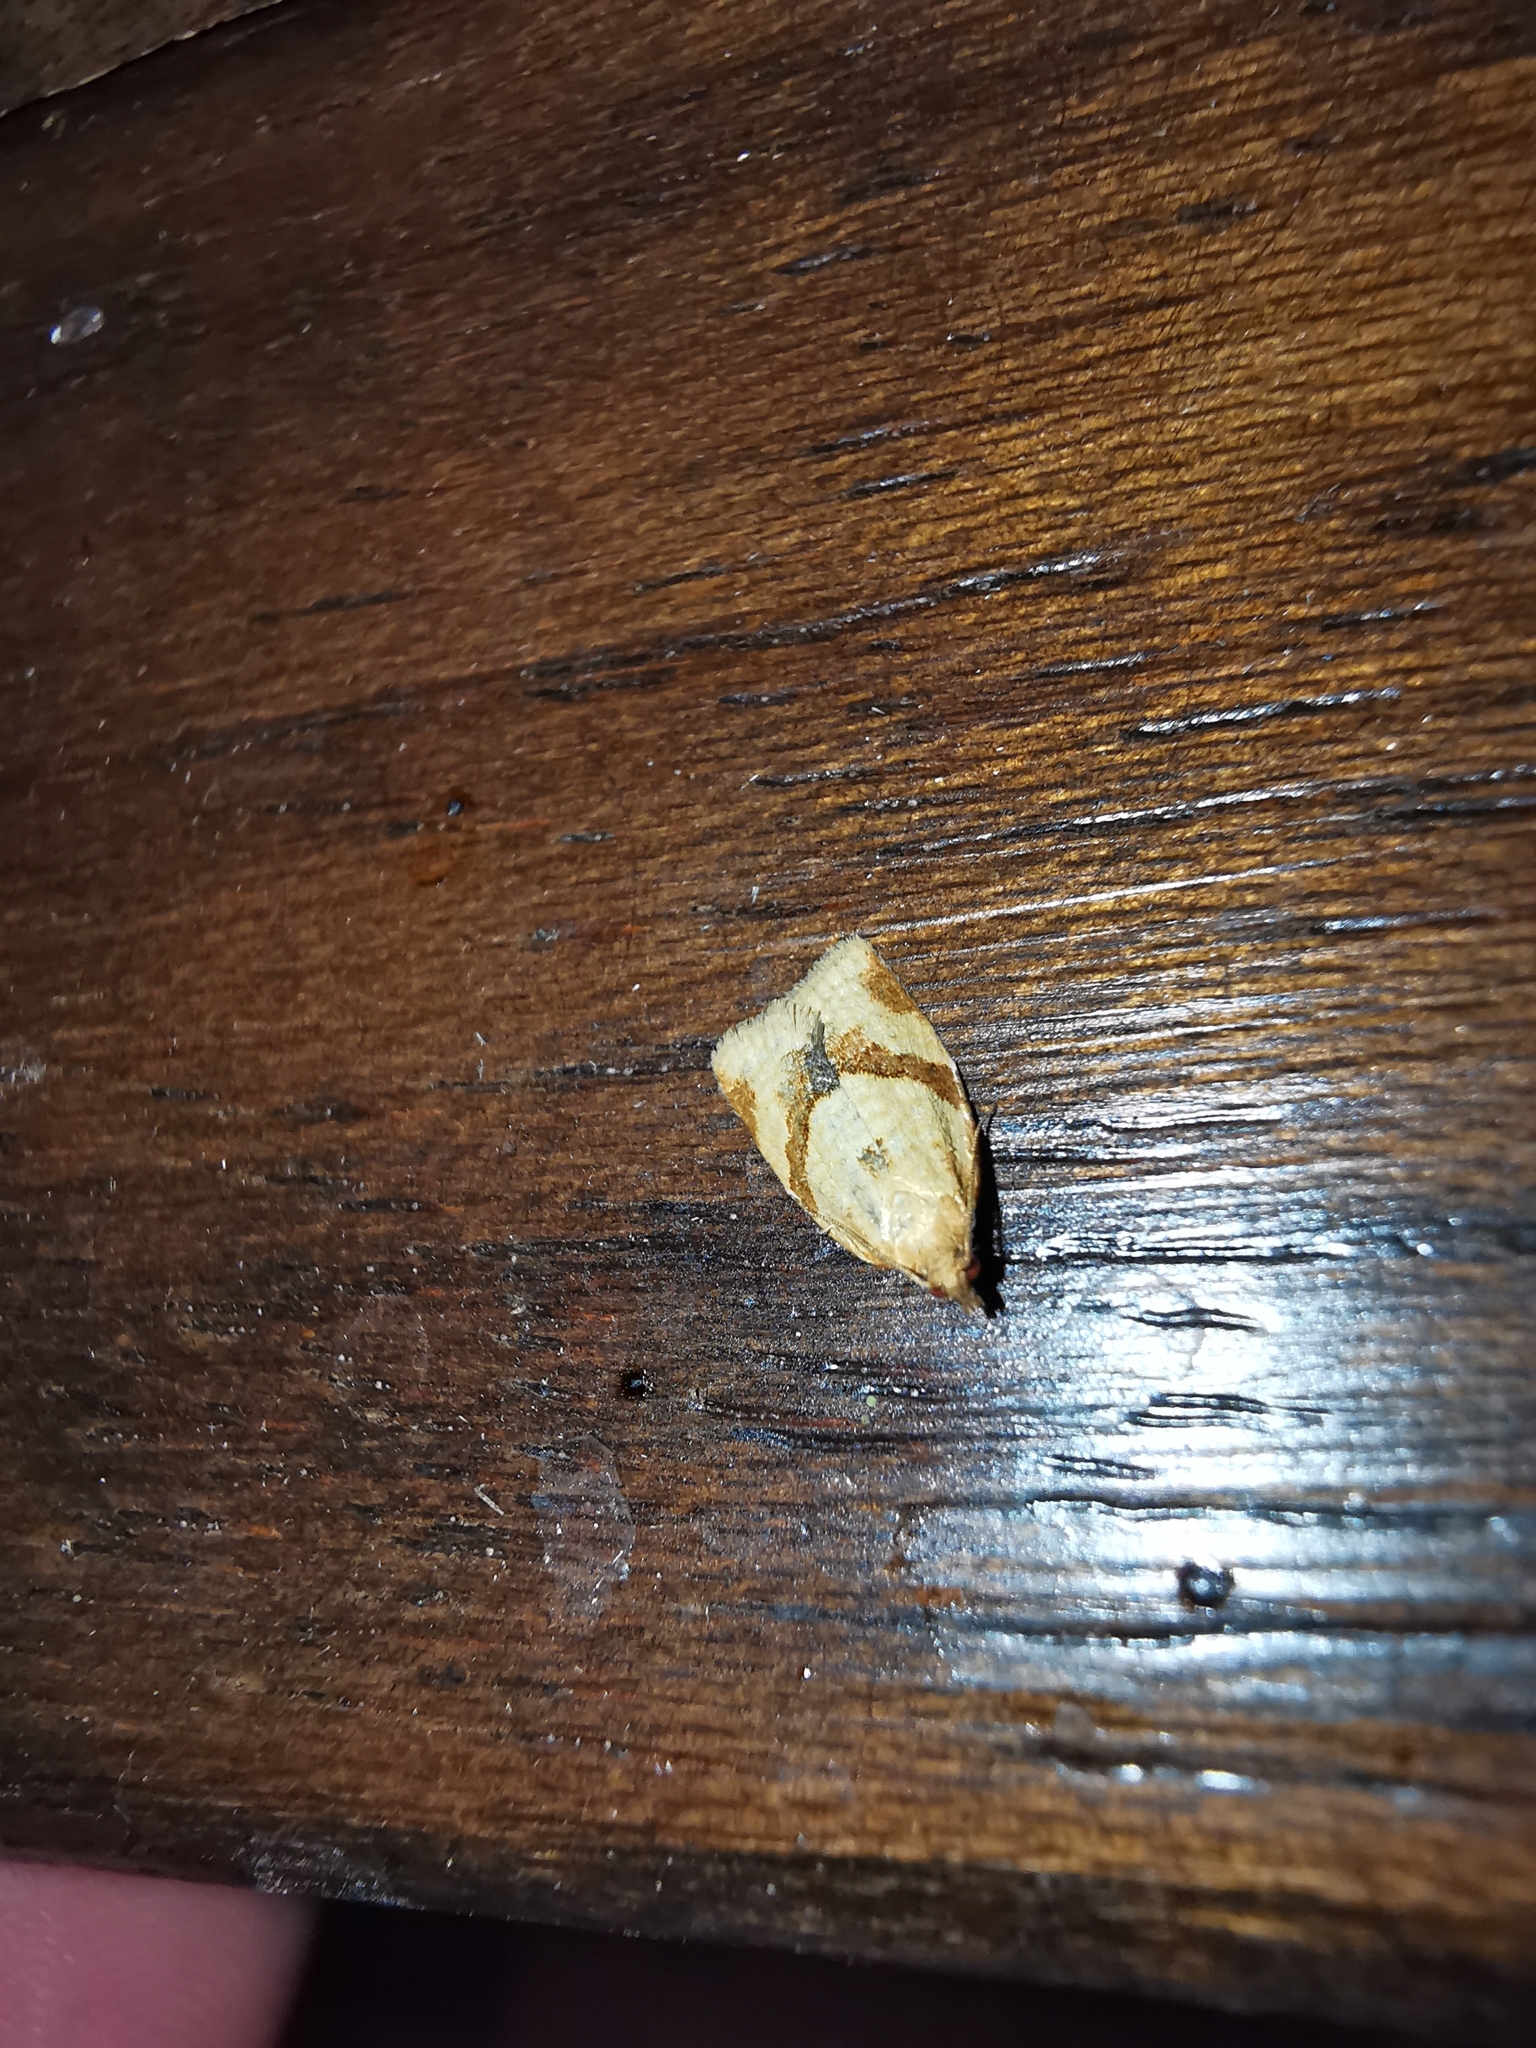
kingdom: Animalia
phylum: Arthropoda
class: Insecta
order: Lepidoptera
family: Tortricidae
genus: Clepsis
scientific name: Clepsis consimilana
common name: Privet tortrix
